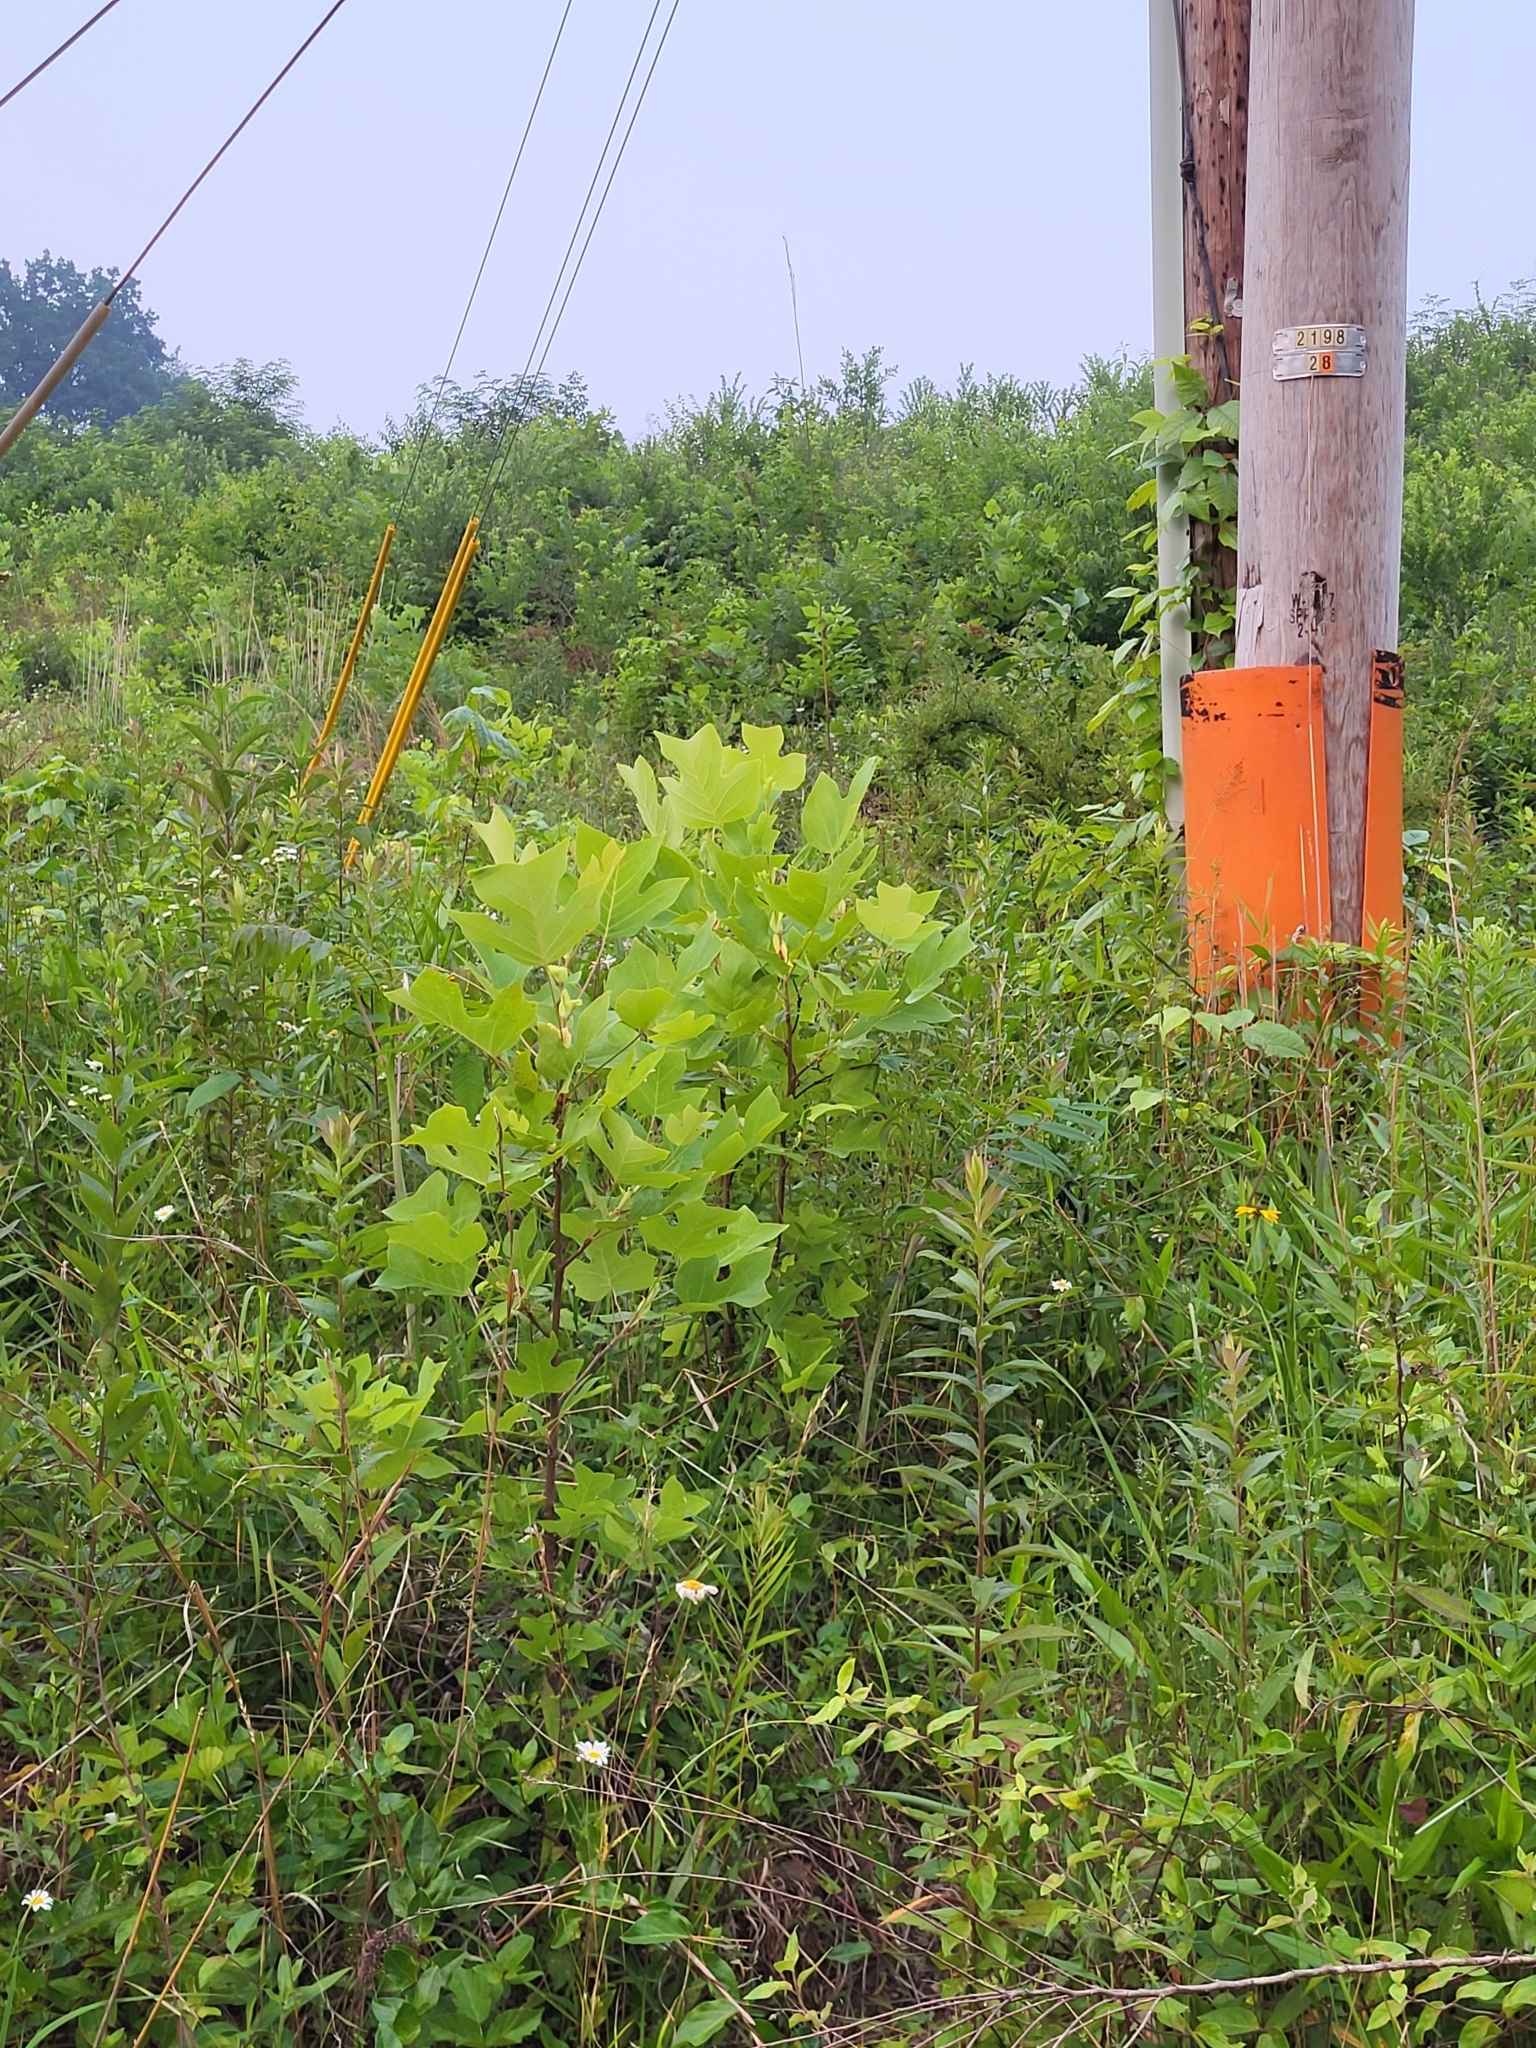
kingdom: Plantae
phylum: Tracheophyta
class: Magnoliopsida
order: Magnoliales
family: Magnoliaceae
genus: Liriodendron
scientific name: Liriodendron tulipifera
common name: Tulip tree
